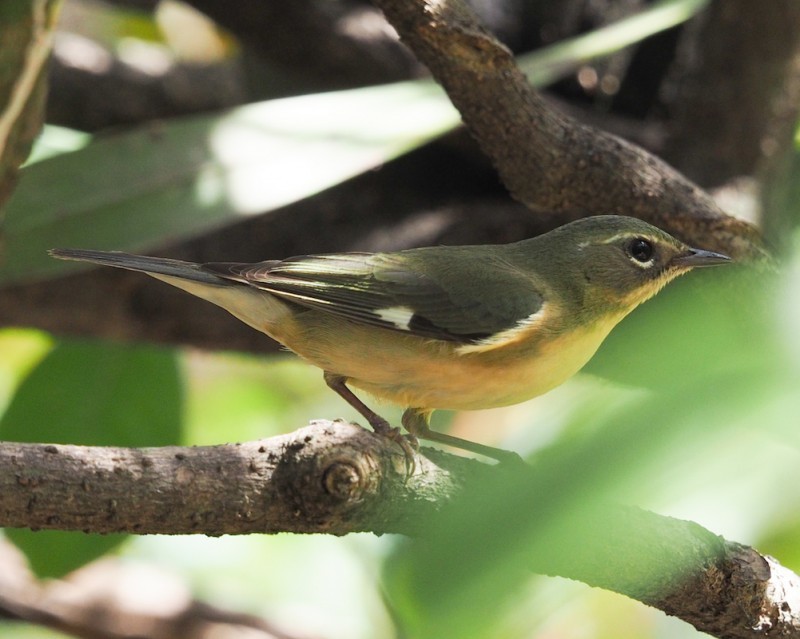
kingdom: Animalia
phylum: Chordata
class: Aves
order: Passeriformes
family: Parulidae
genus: Setophaga
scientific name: Setophaga caerulescens
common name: Black-throated blue warbler
